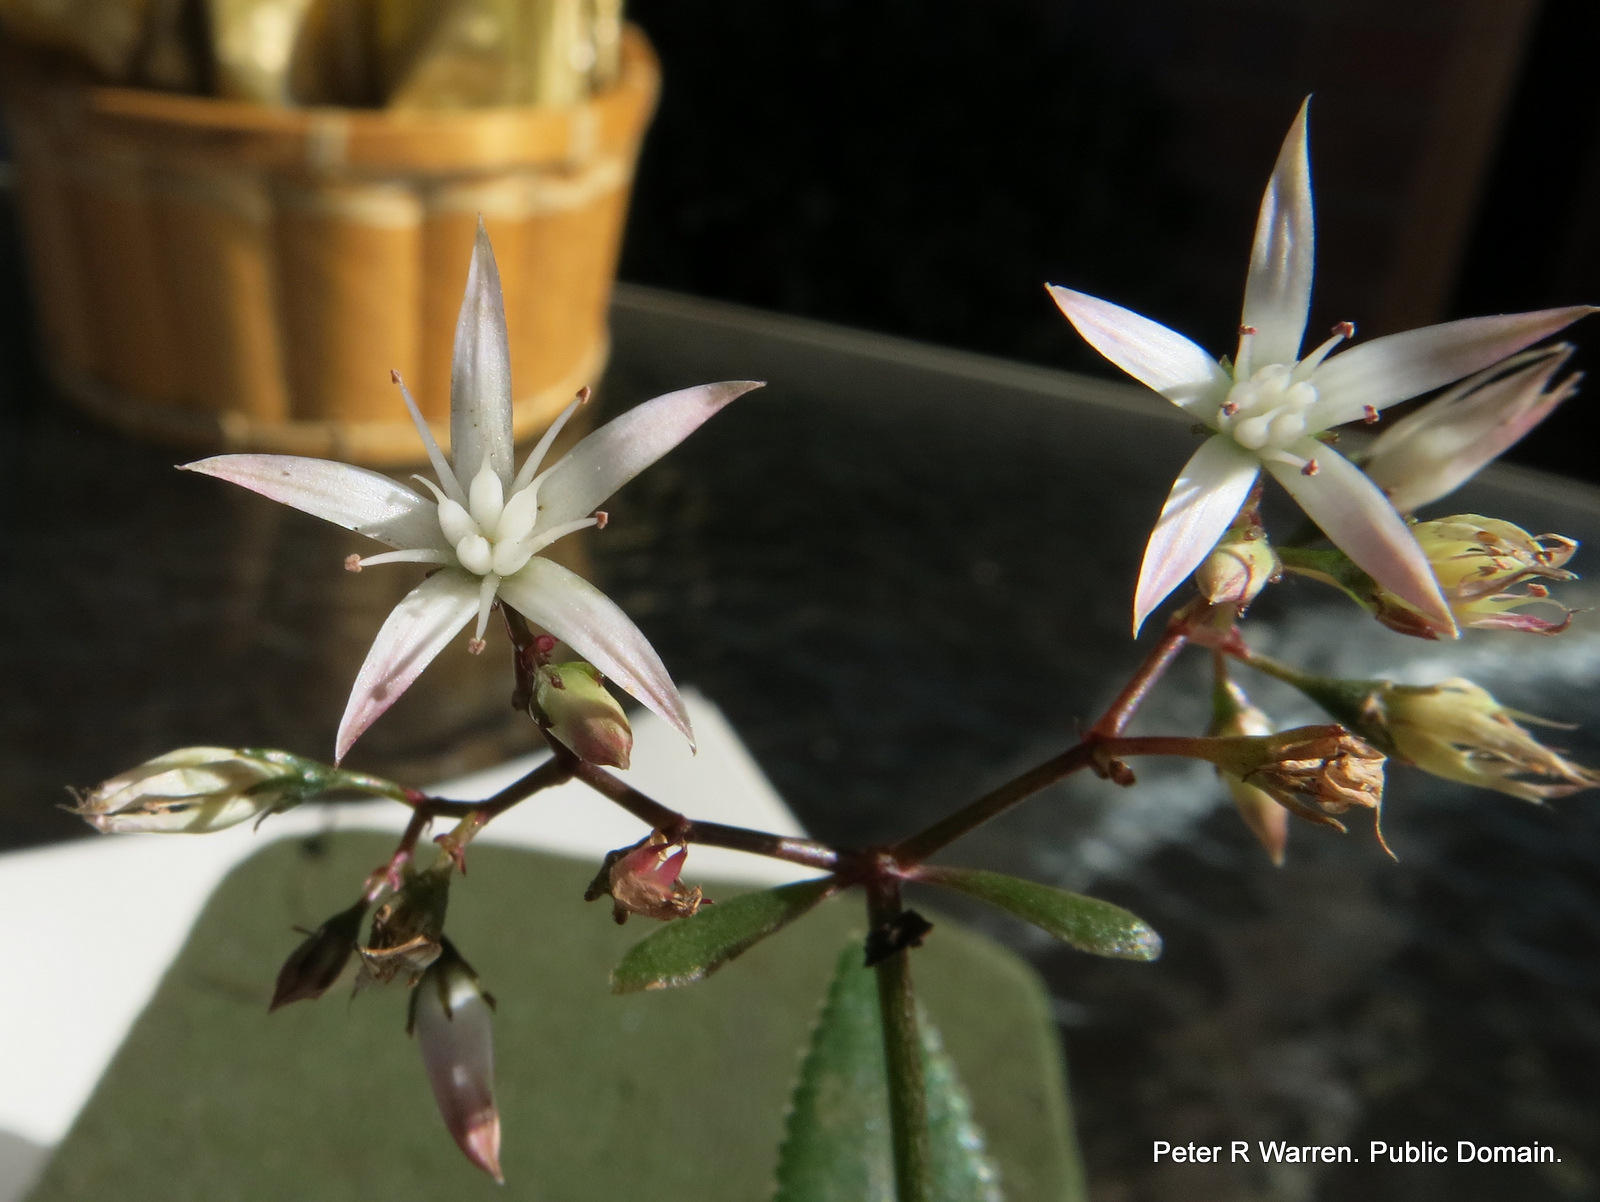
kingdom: Plantae
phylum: Tracheophyta
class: Magnoliopsida
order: Saxifragales
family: Crassulaceae
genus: Crassula
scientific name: Crassula sarmentosa
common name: Jade-tree
